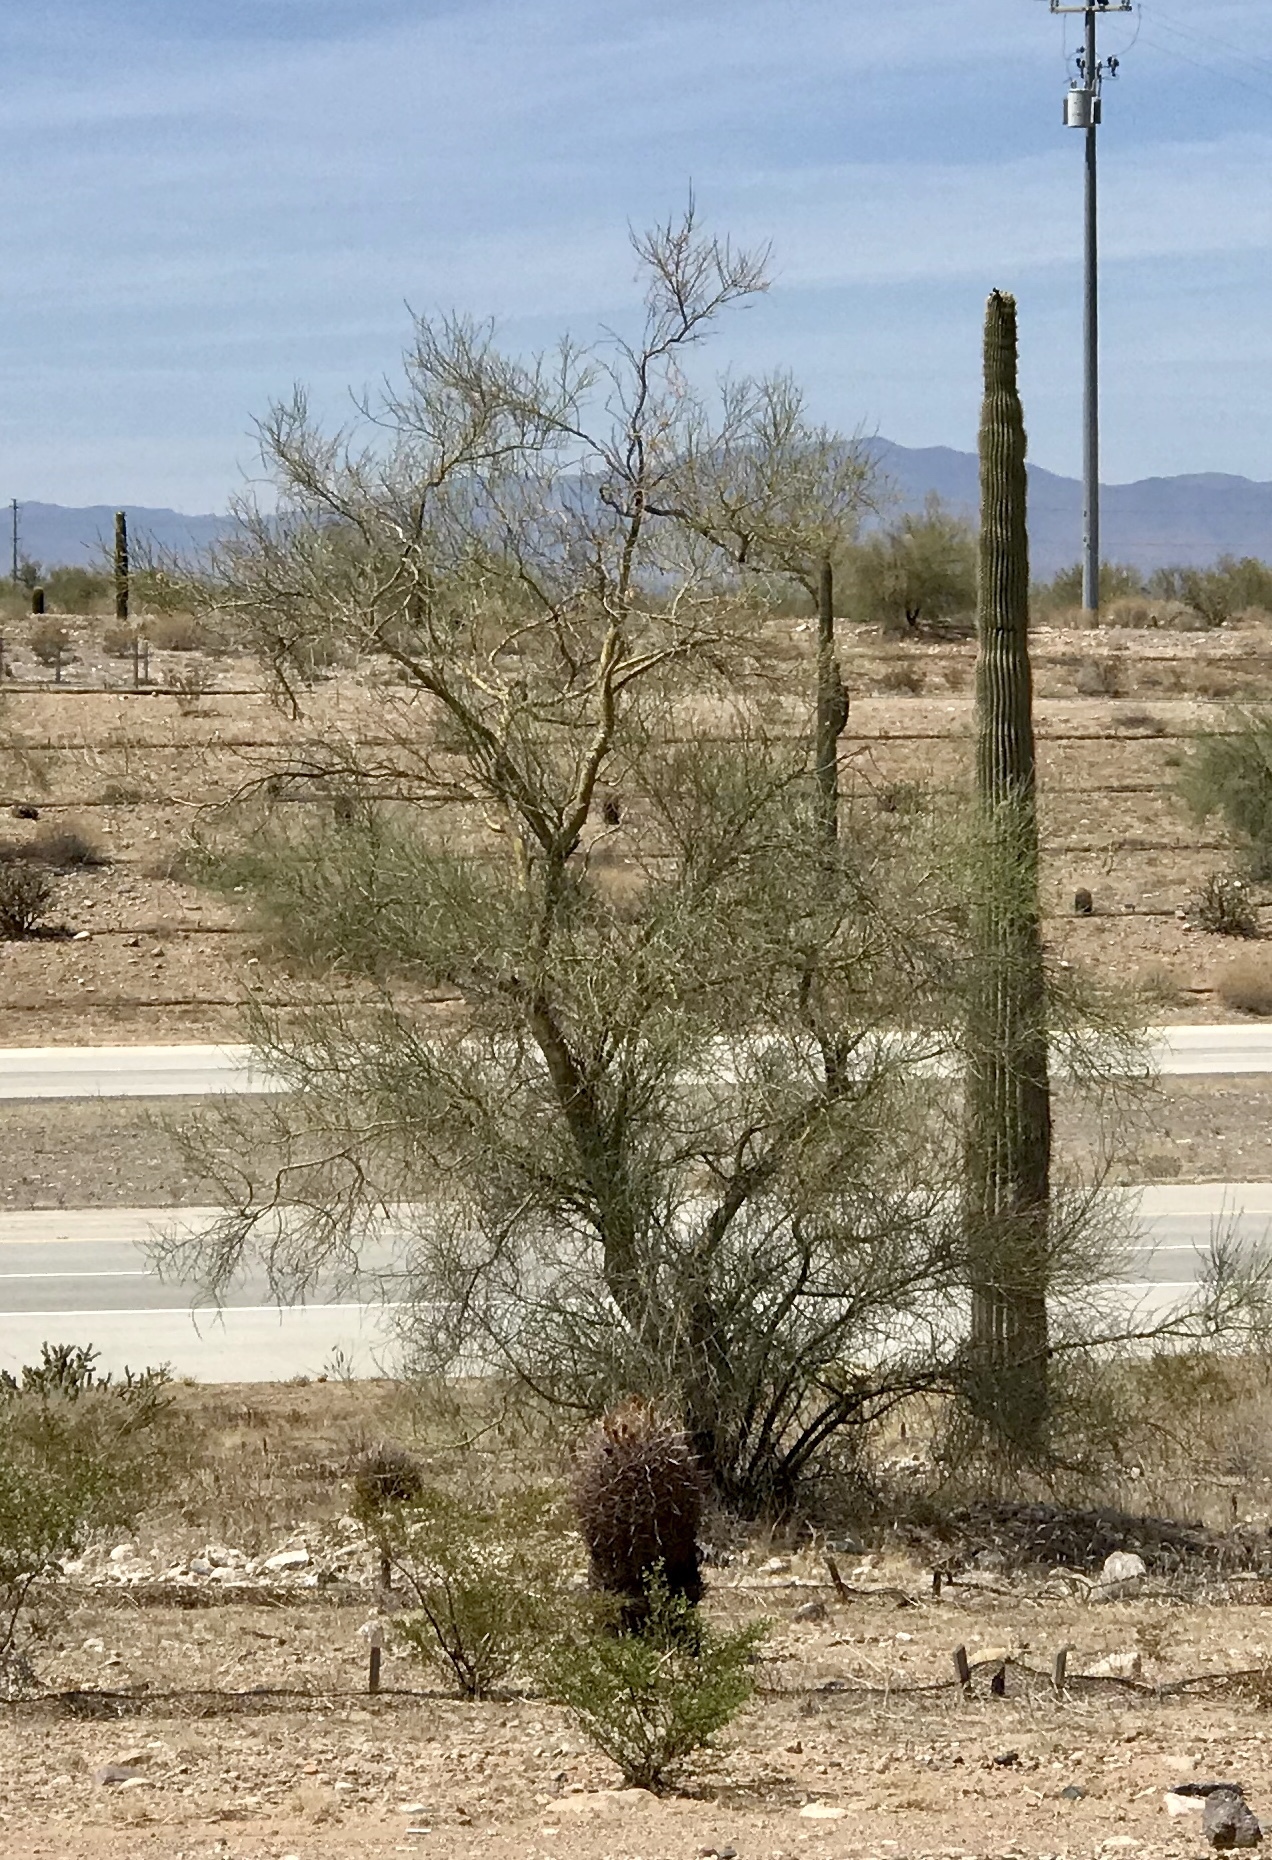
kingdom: Plantae
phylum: Tracheophyta
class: Magnoliopsida
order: Fabales
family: Fabaceae
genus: Parkinsonia
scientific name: Parkinsonia microphylla
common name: Yellow paloverde
